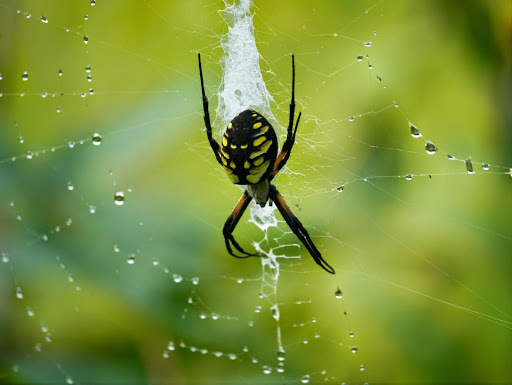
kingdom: Animalia
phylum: Arthropoda
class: Arachnida
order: Araneae
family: Araneidae
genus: Argiope
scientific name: Argiope aurantia
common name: Orb weavers
